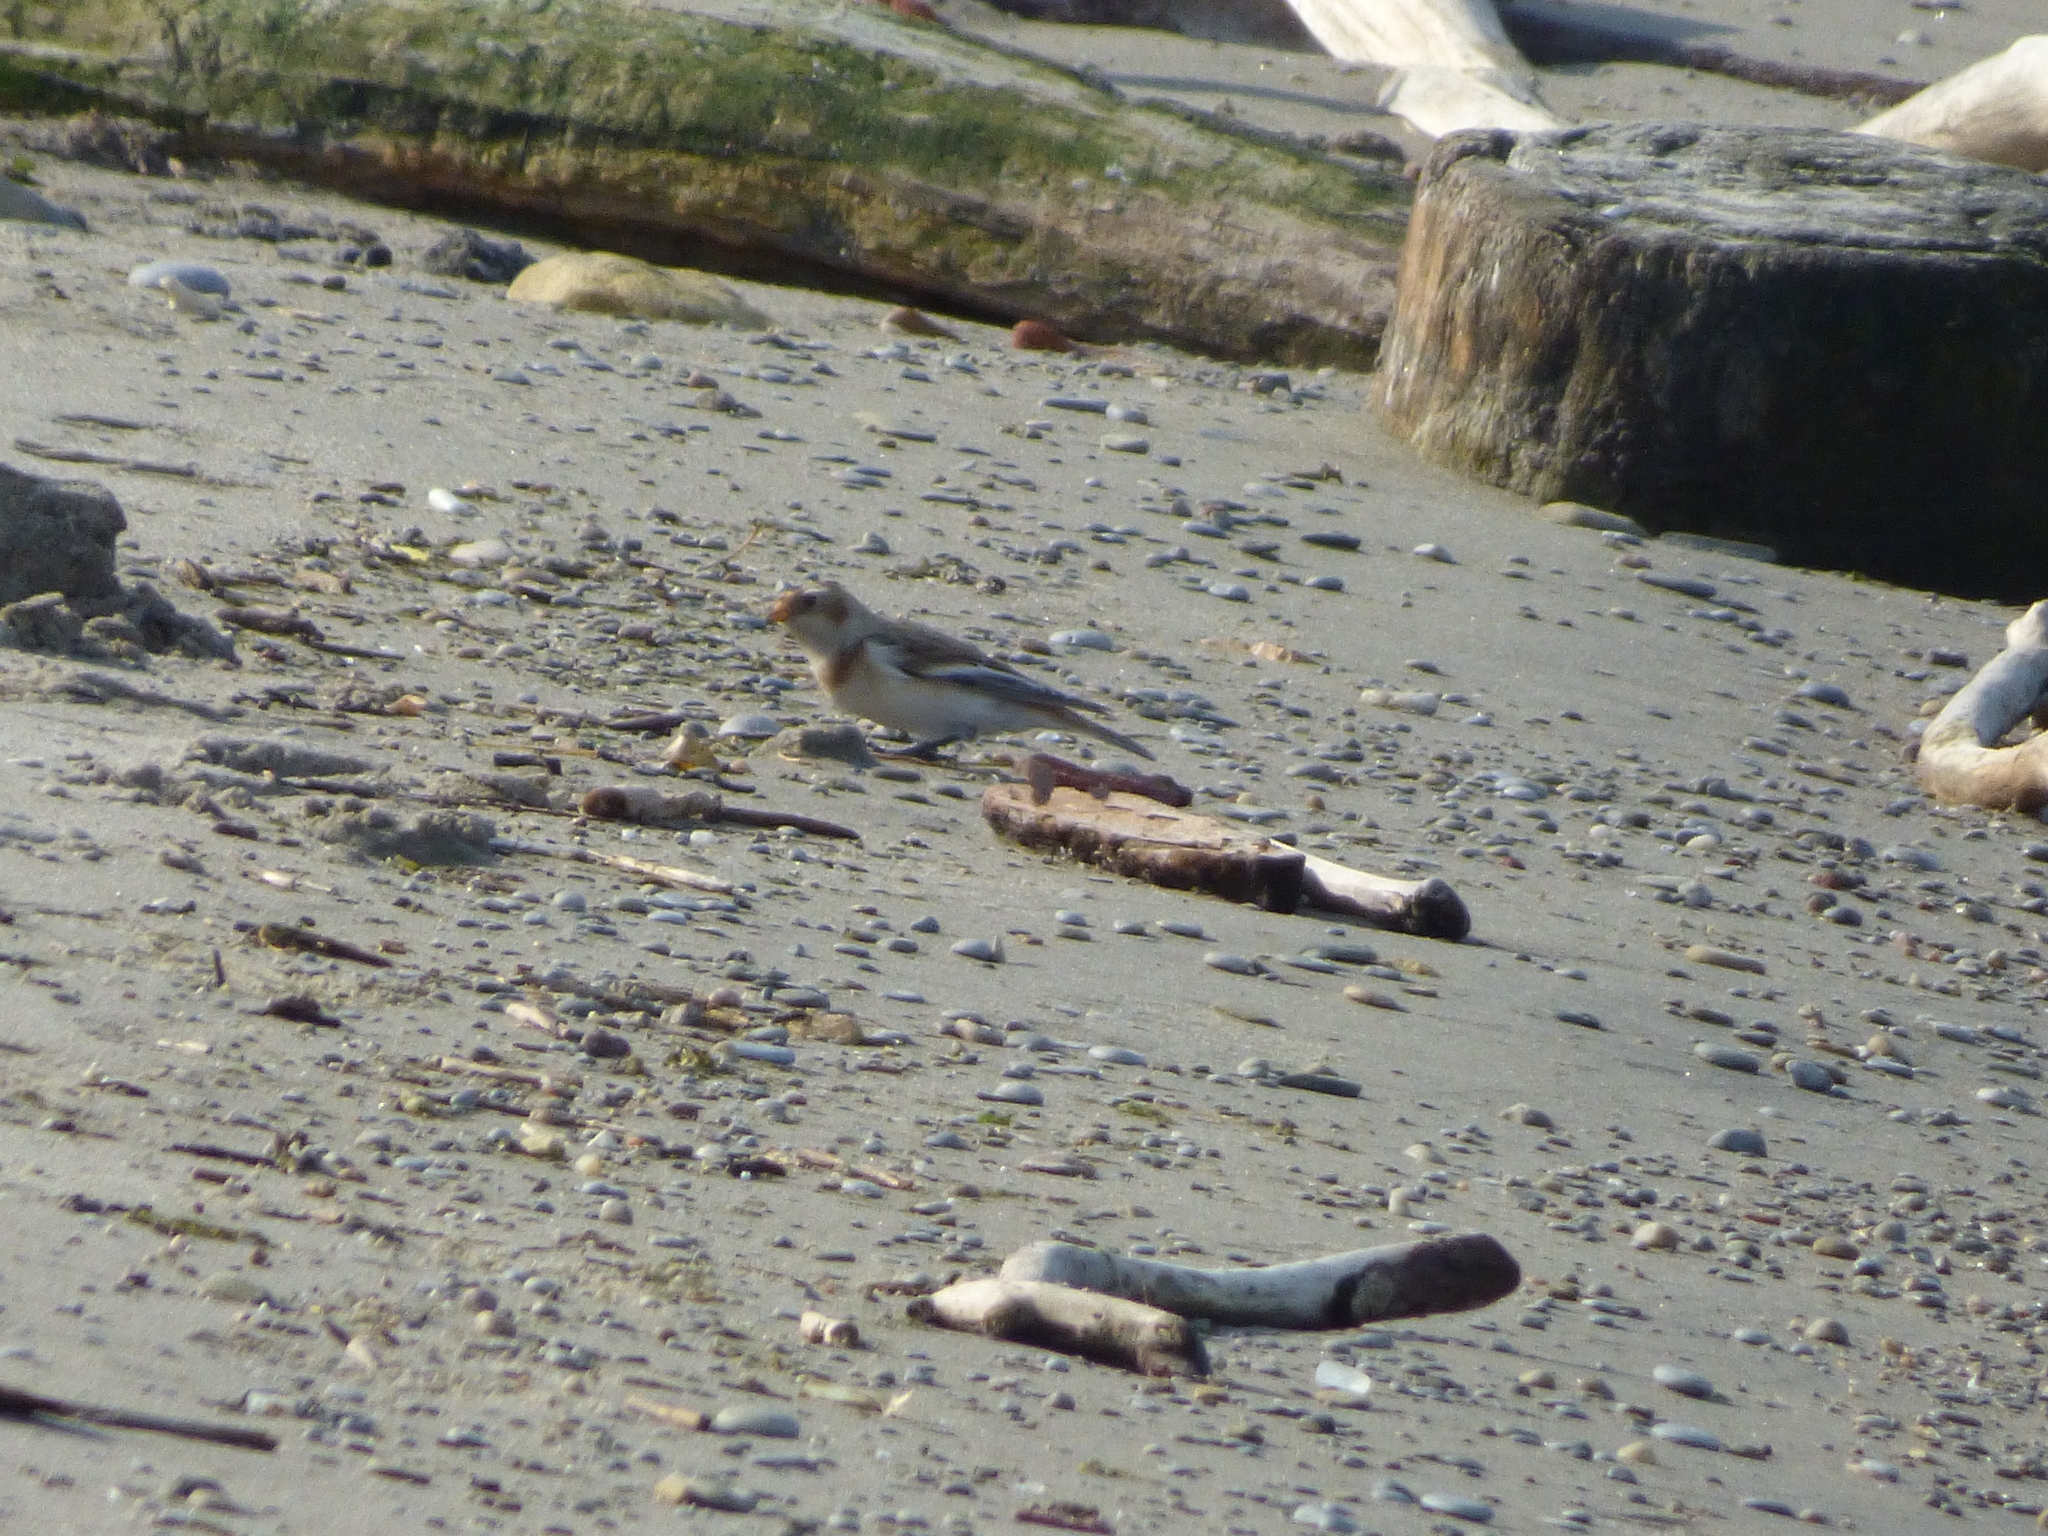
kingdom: Animalia
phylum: Chordata
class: Aves
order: Passeriformes
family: Calcariidae
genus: Plectrophenax
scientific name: Plectrophenax nivalis
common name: Snow bunting
